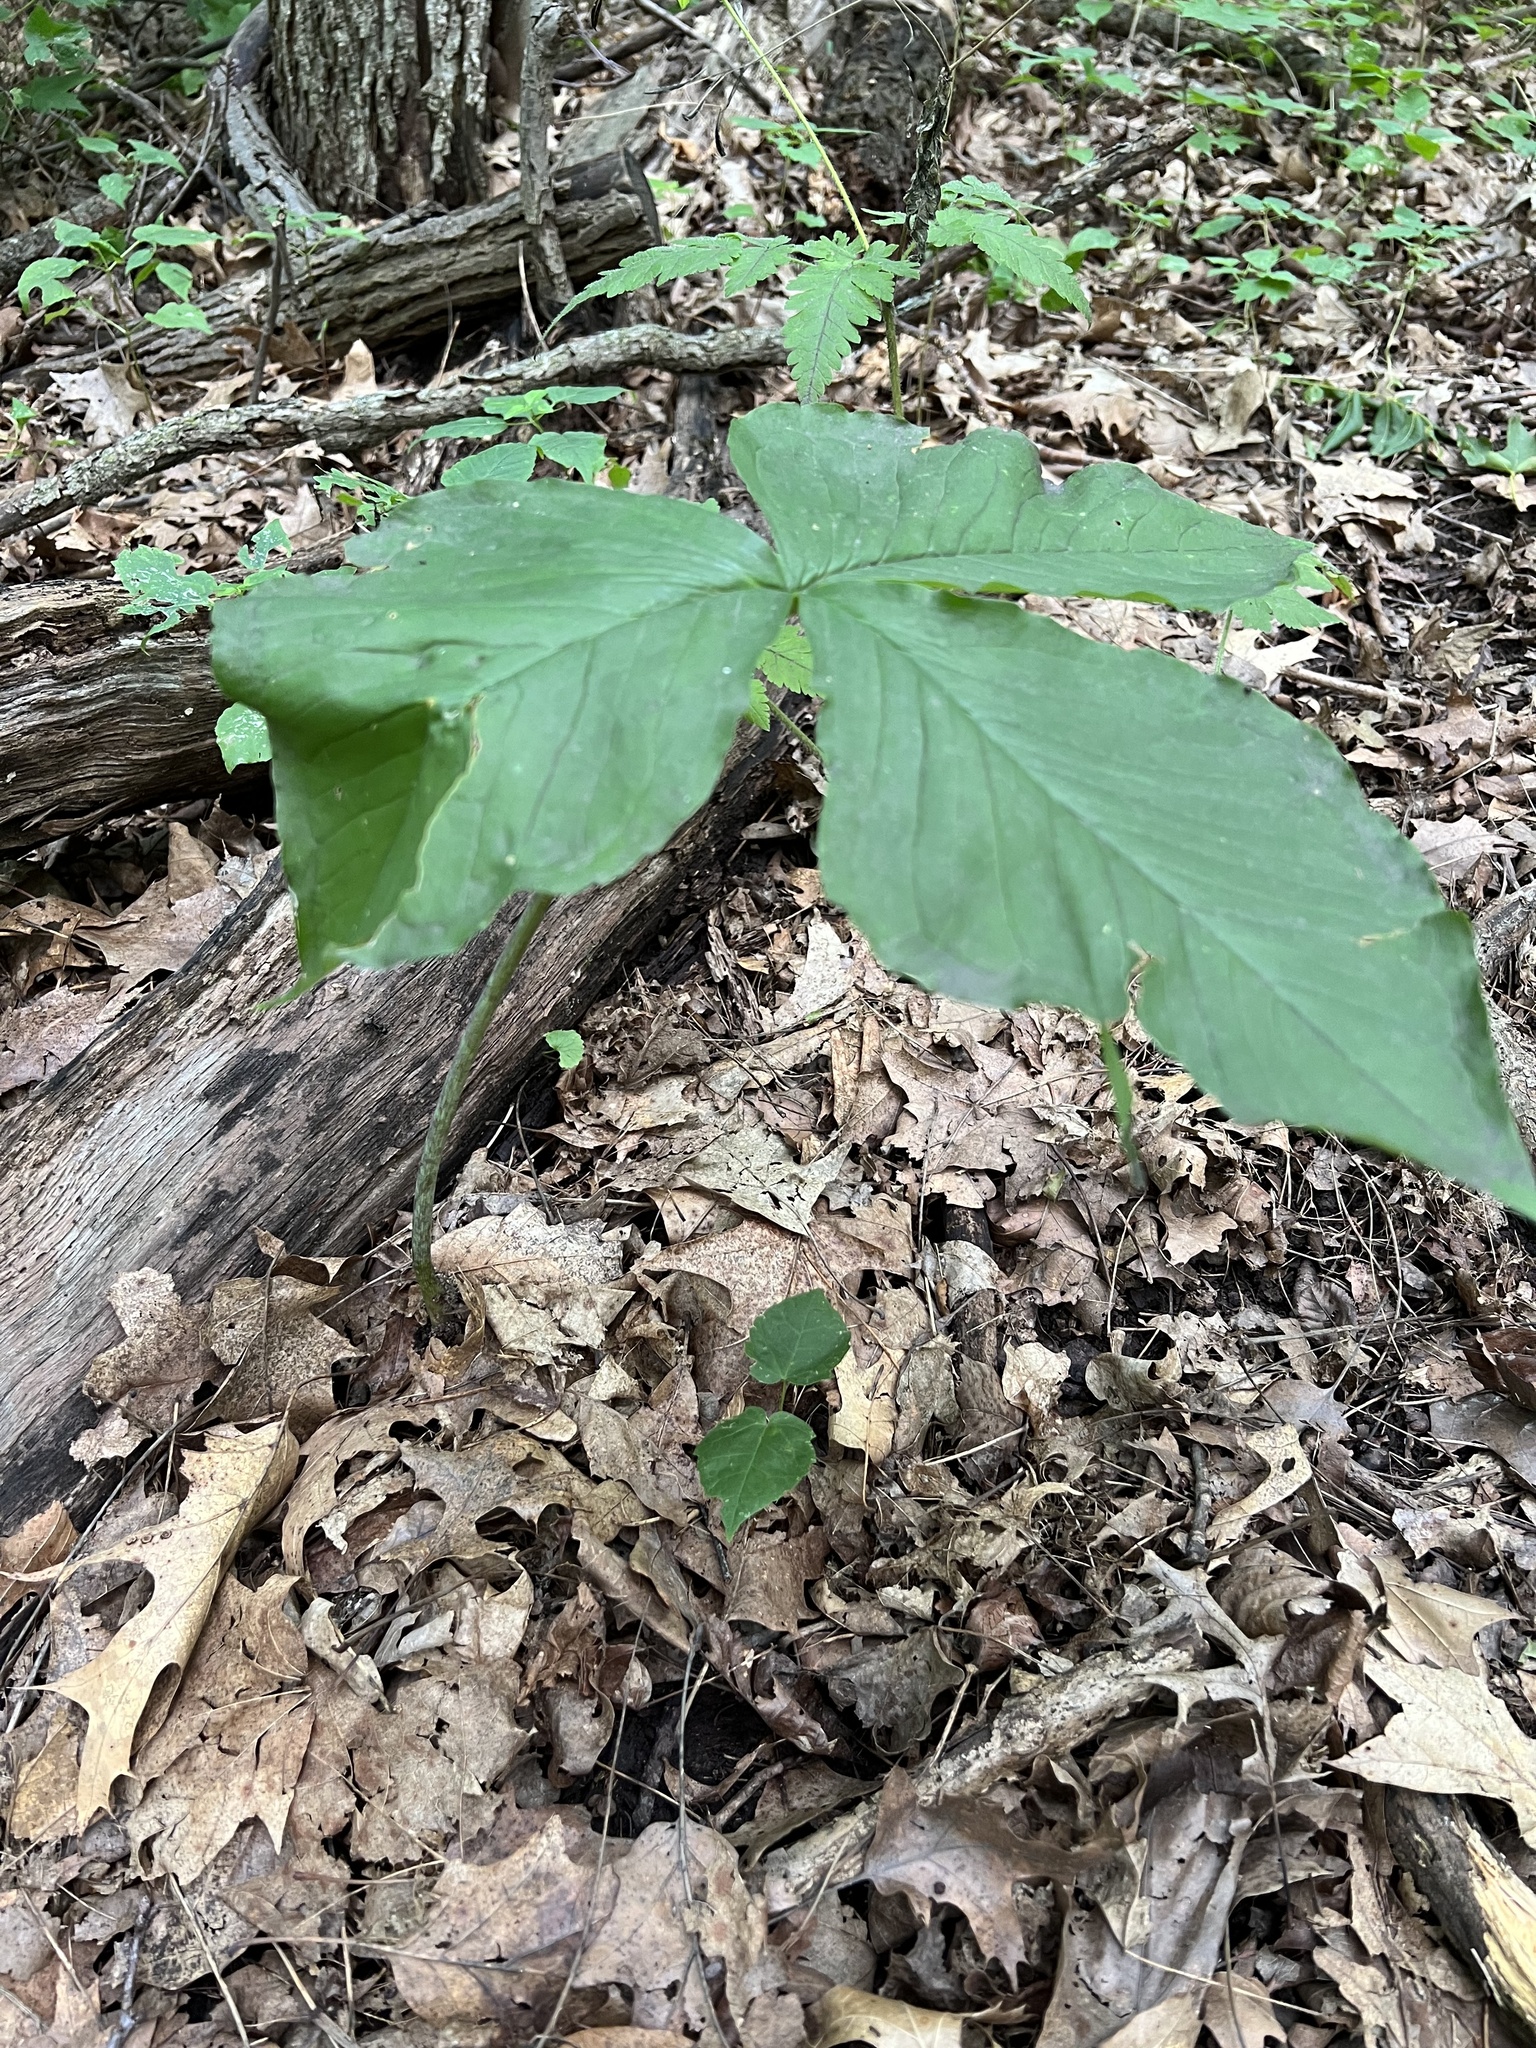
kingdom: Plantae
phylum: Tracheophyta
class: Liliopsida
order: Alismatales
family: Araceae
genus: Arisaema
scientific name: Arisaema triphyllum
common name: Jack-in-the-pulpit
